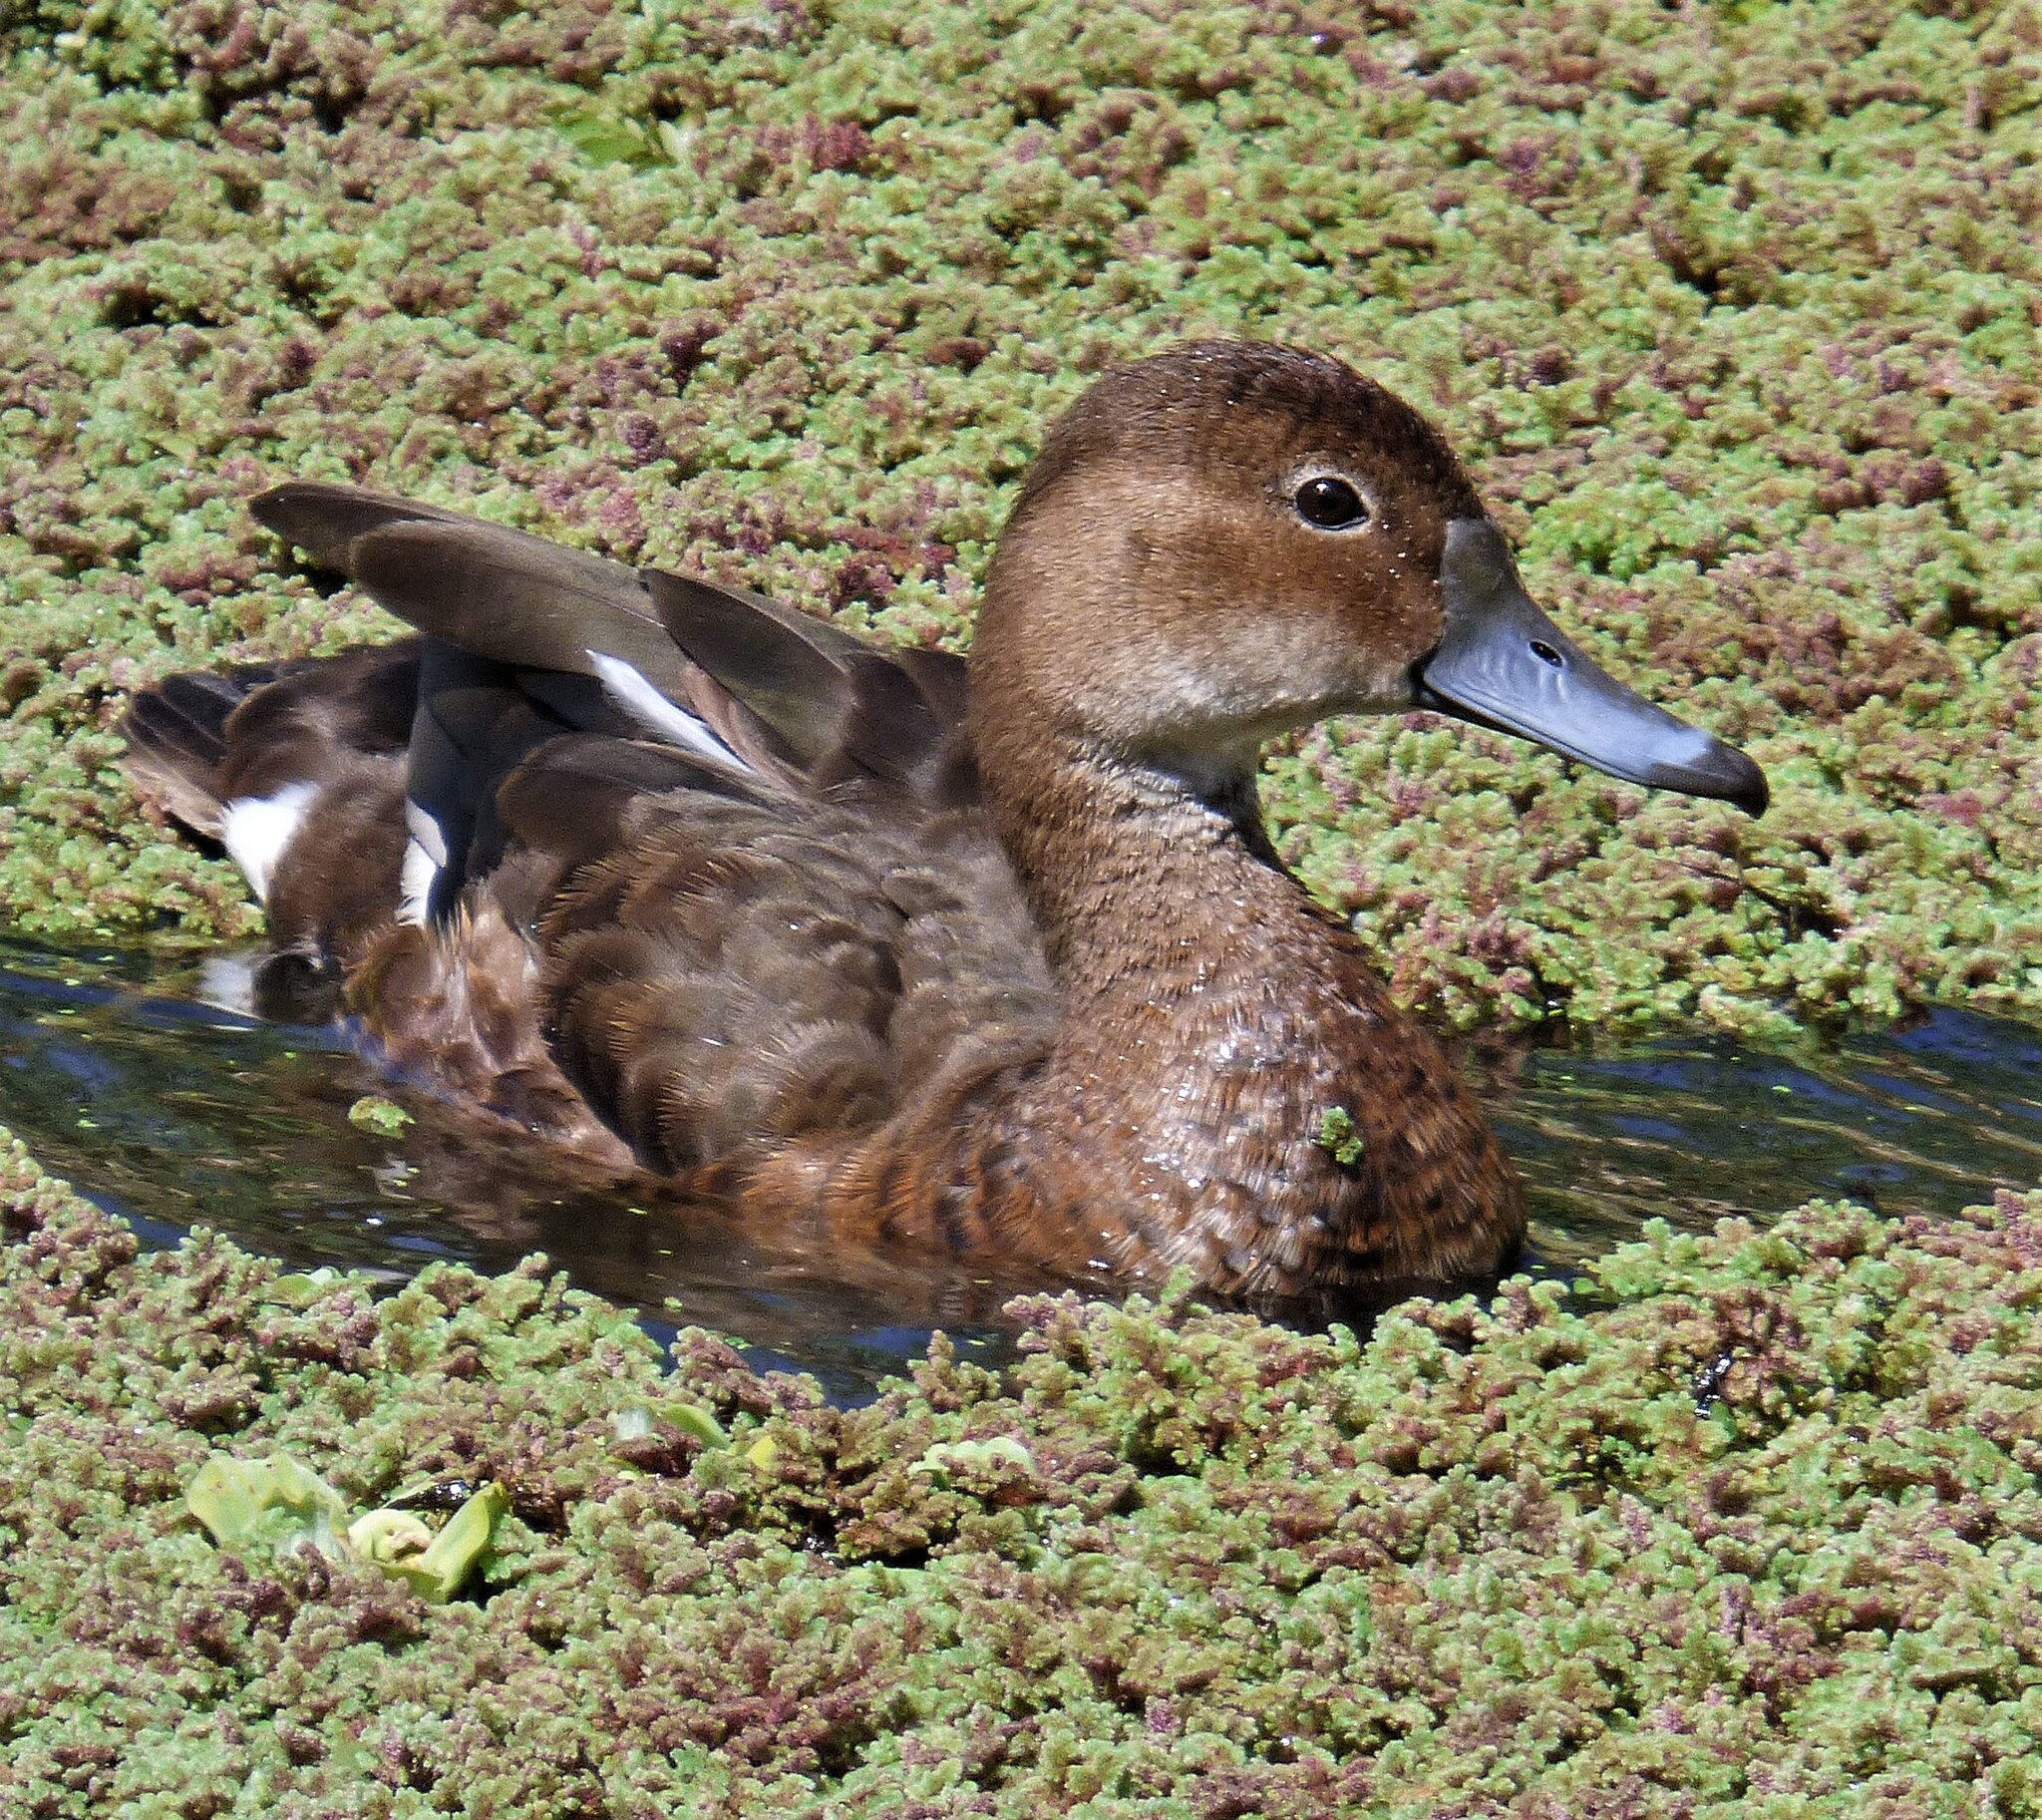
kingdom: Animalia
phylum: Chordata
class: Aves
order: Anseriformes
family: Anatidae
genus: Netta
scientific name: Netta peposaca
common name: Rosy-billed pochard
